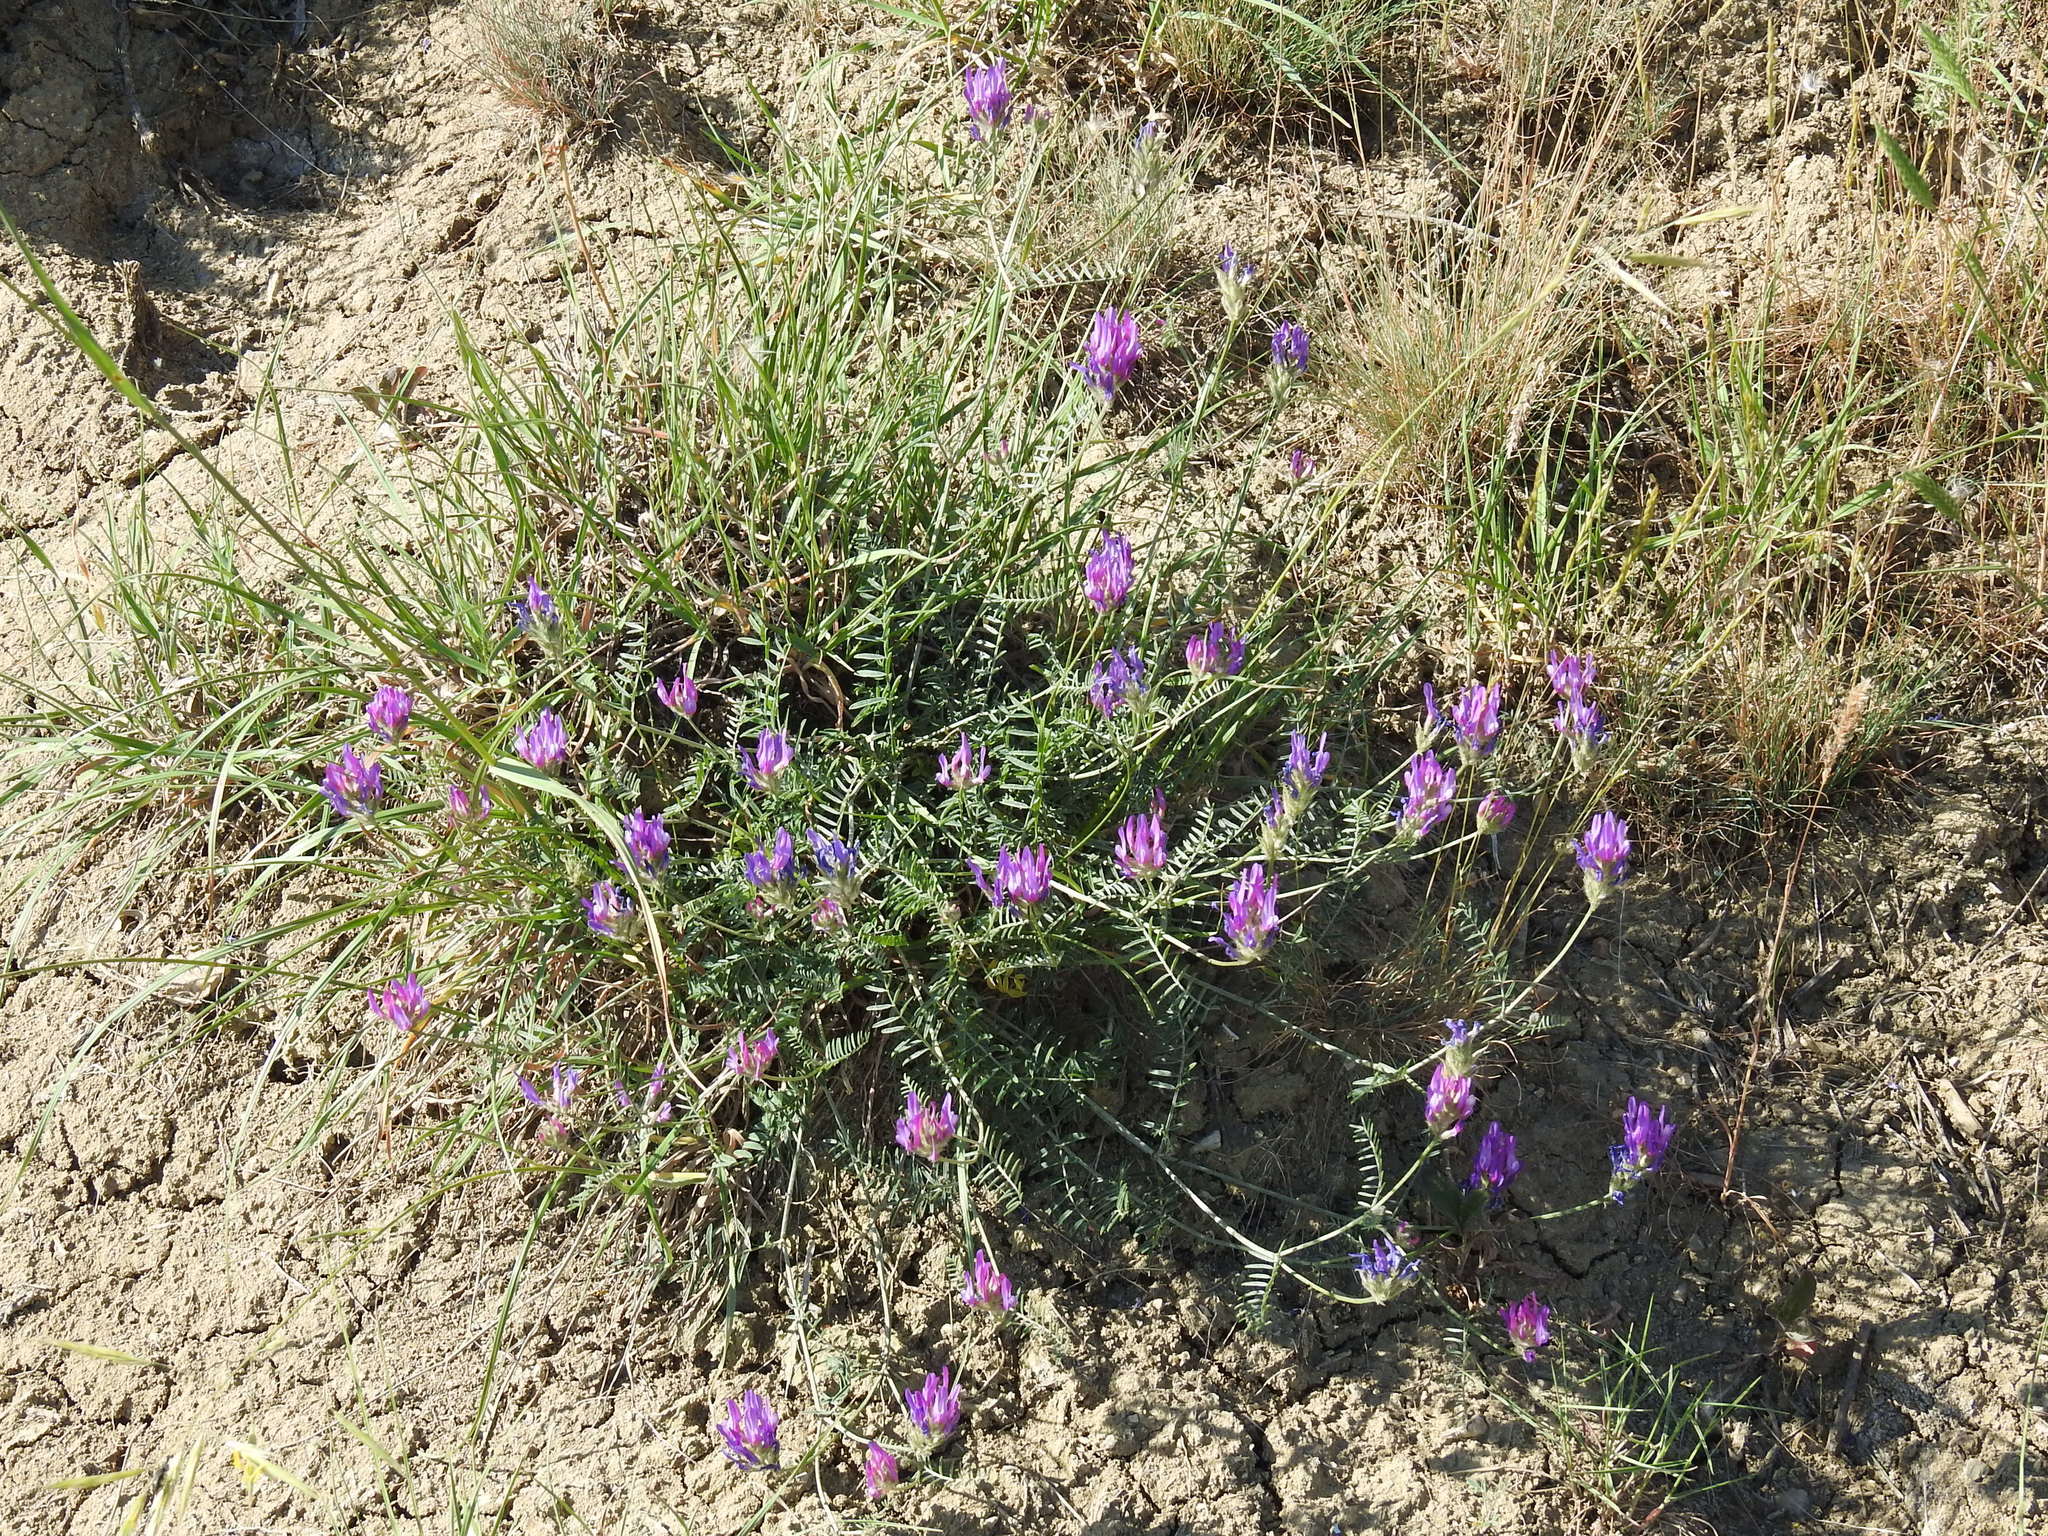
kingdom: Plantae
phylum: Tracheophyta
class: Magnoliopsida
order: Fabales
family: Fabaceae
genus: Astragalus
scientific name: Astragalus onobrychis
